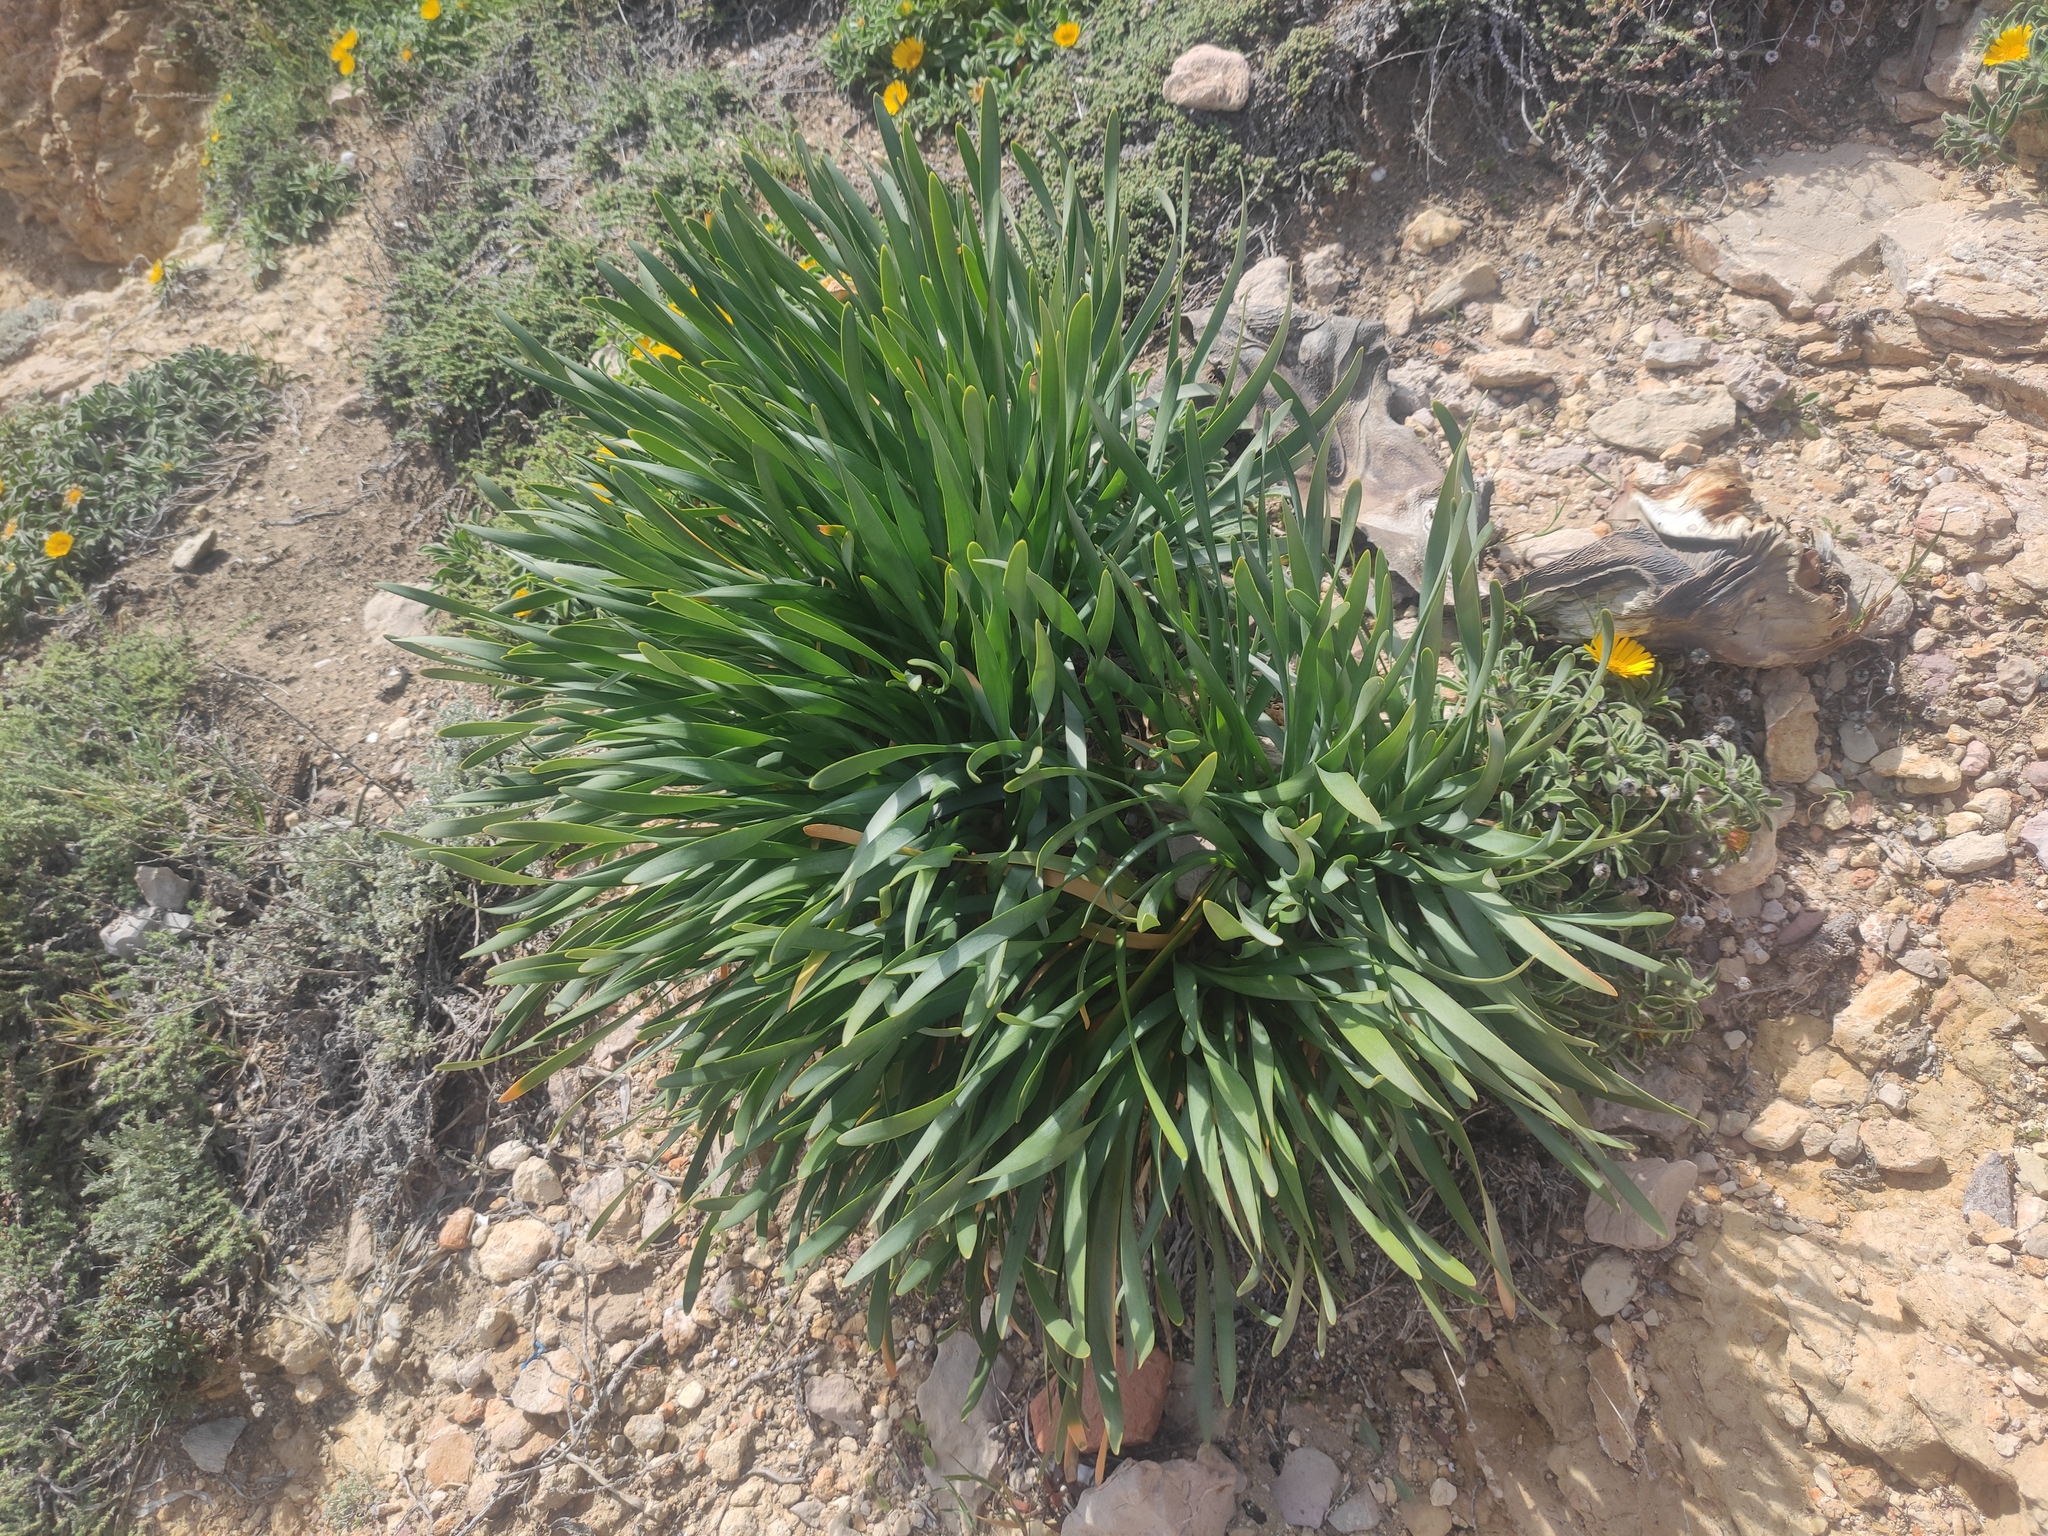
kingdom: Plantae
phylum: Tracheophyta
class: Liliopsida
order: Asparagales
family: Amaryllidaceae
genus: Pancratium
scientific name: Pancratium maritimum
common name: Sea-daffodil
